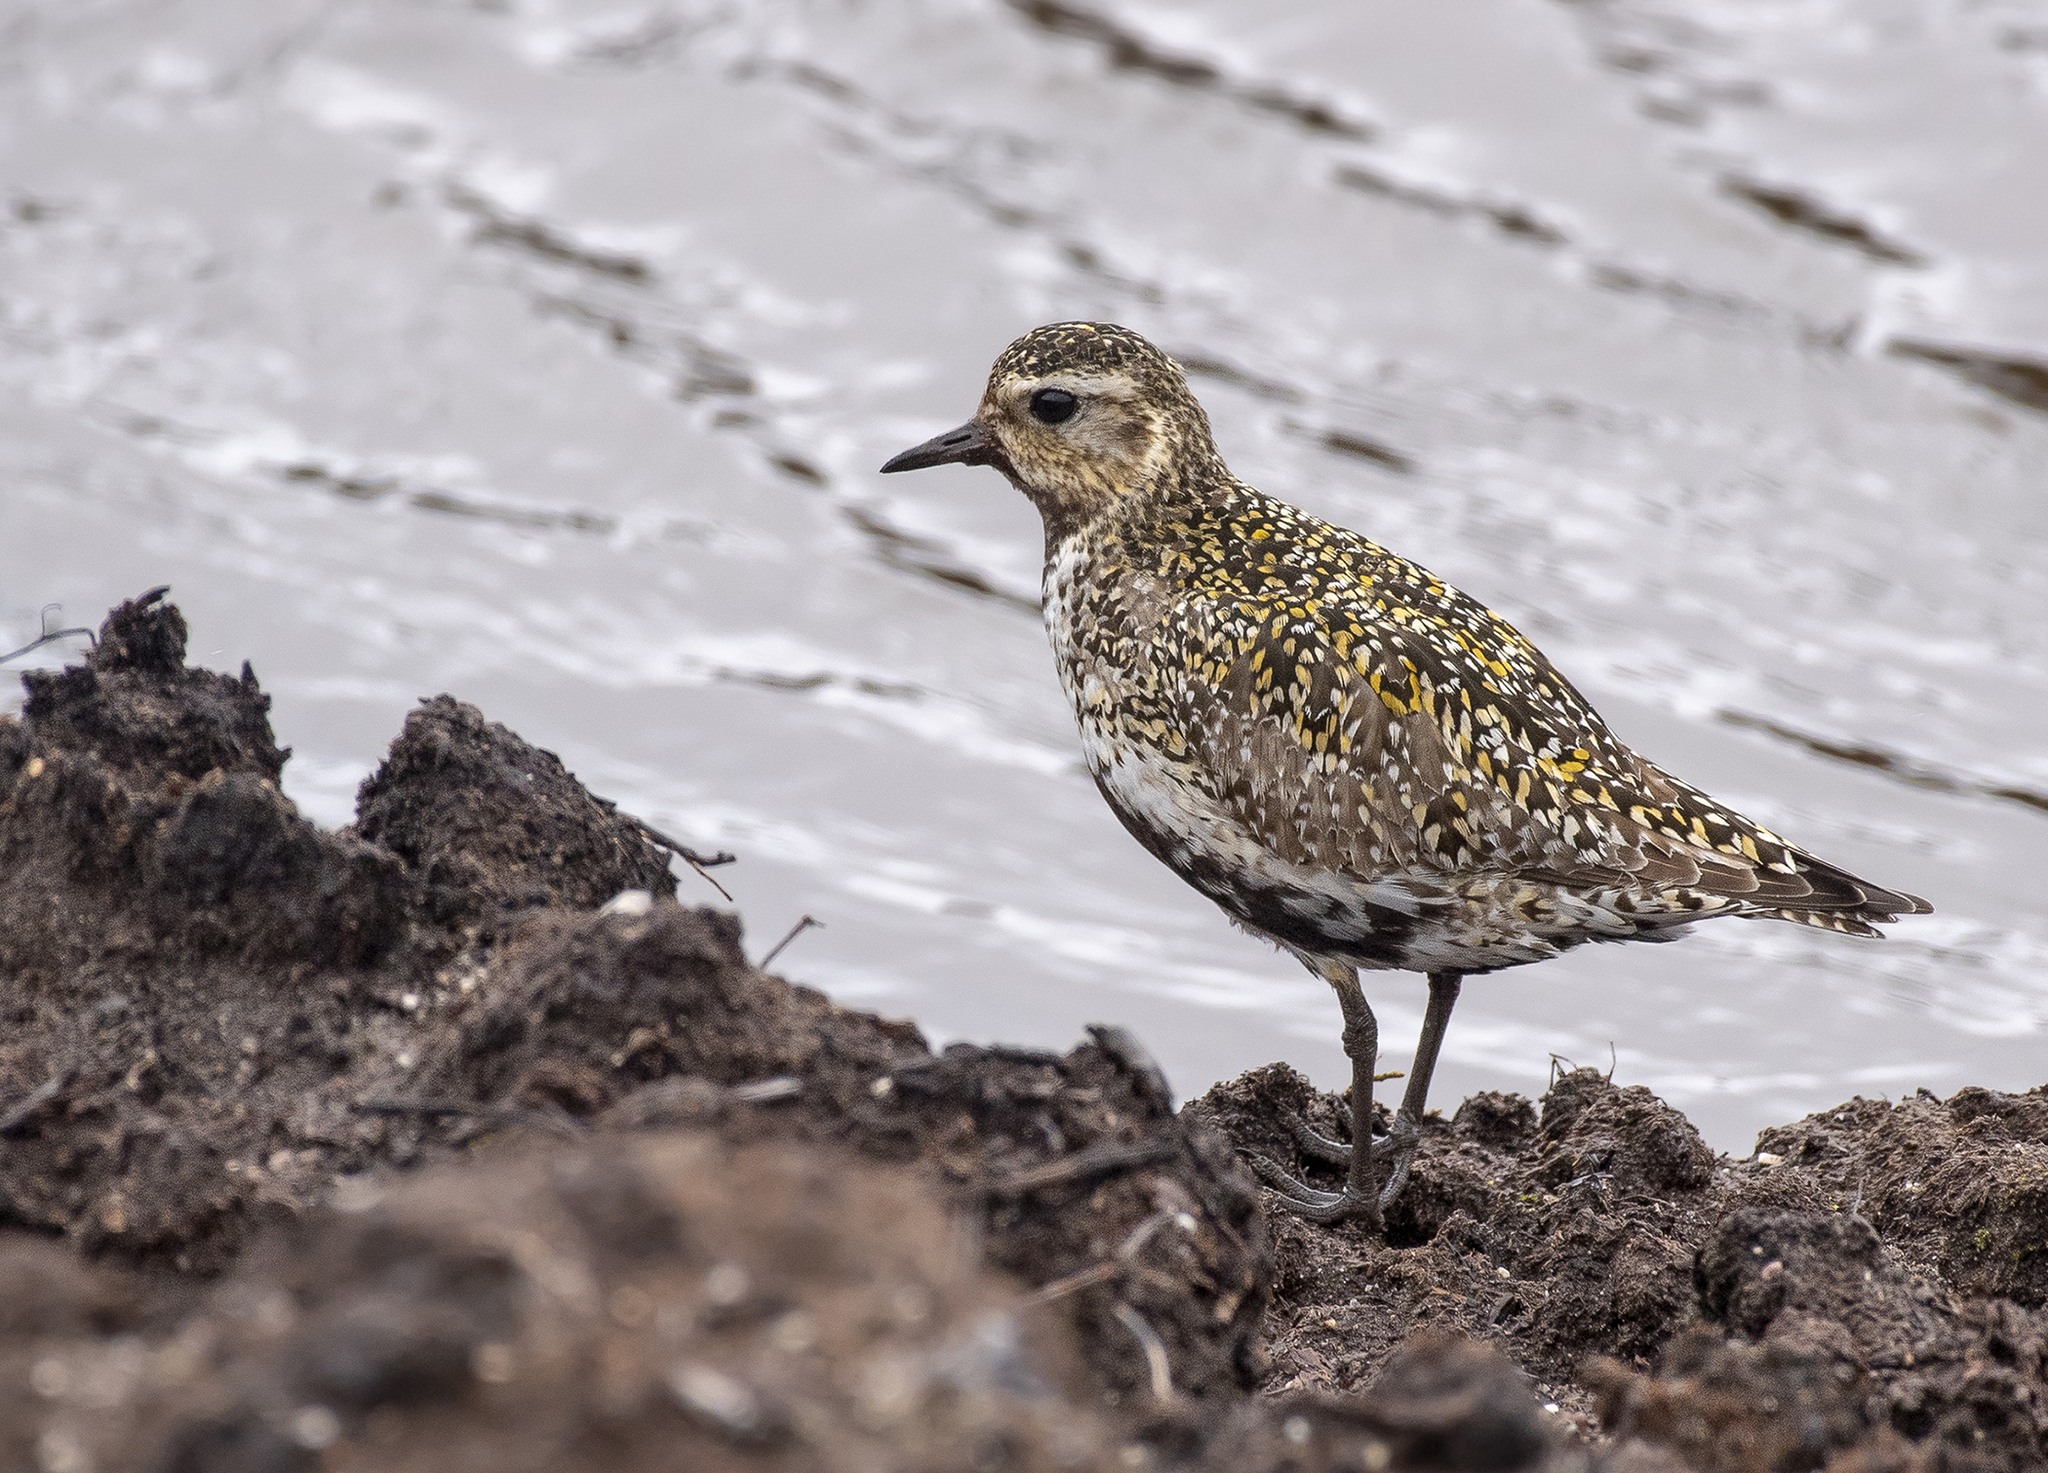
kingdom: Animalia
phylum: Chordata
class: Aves
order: Charadriiformes
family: Charadriidae
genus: Pluvialis
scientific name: Pluvialis apricaria
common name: European golden plover
